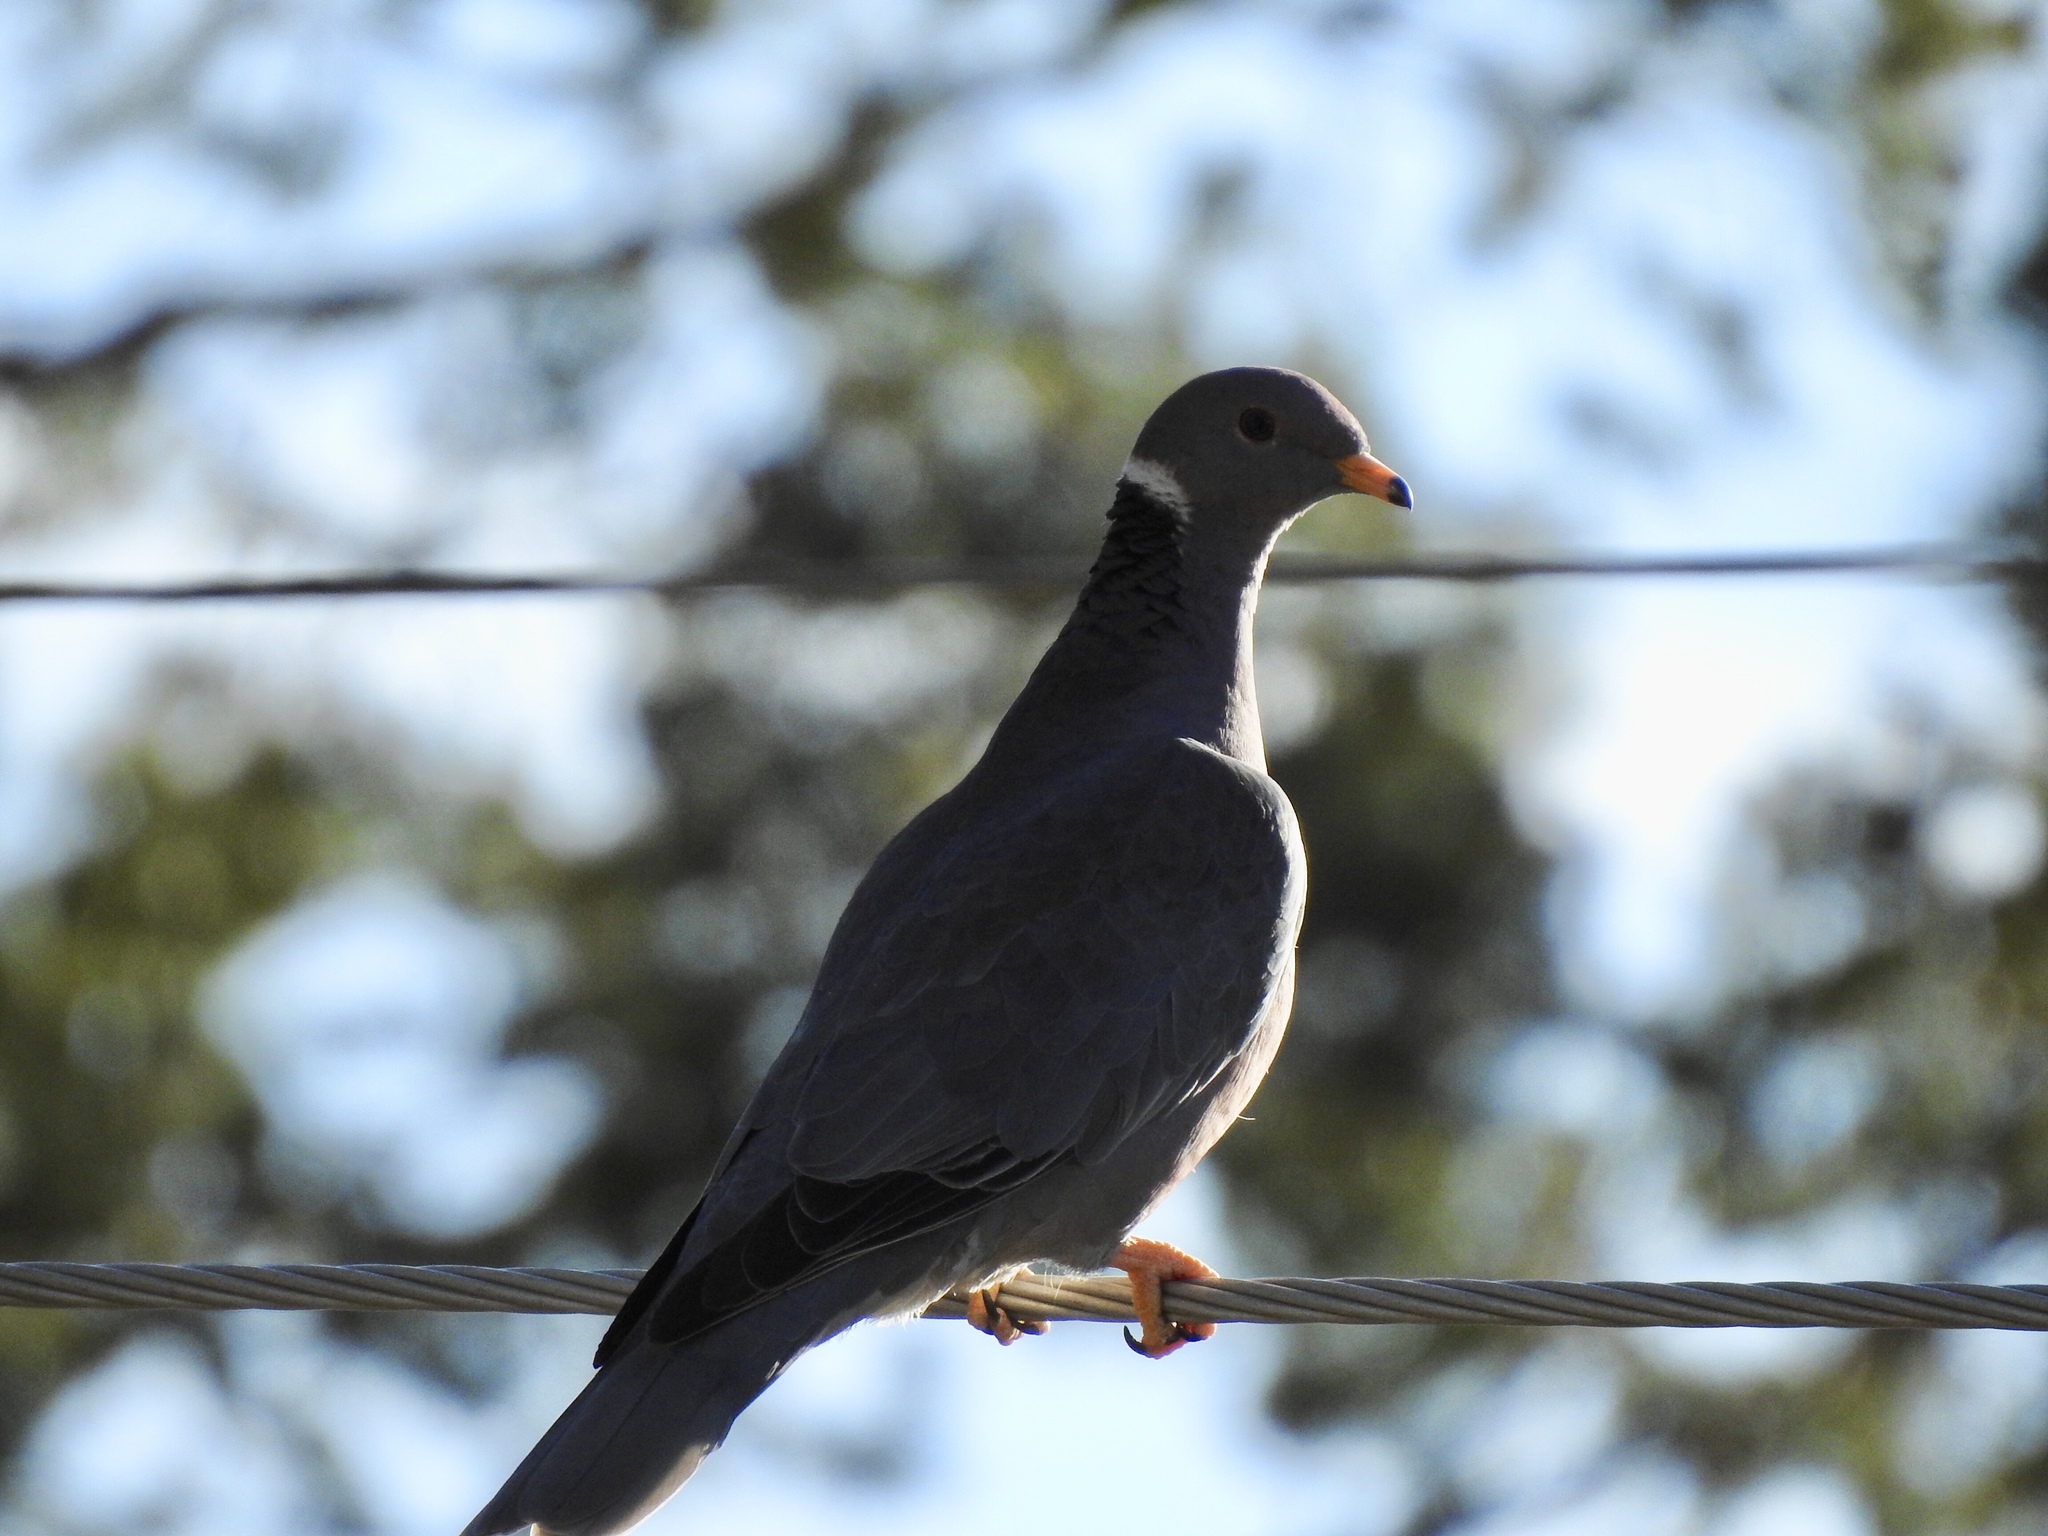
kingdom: Animalia
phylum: Chordata
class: Aves
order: Columbiformes
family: Columbidae
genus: Patagioenas
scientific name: Patagioenas fasciata
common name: Band-tailed pigeon
